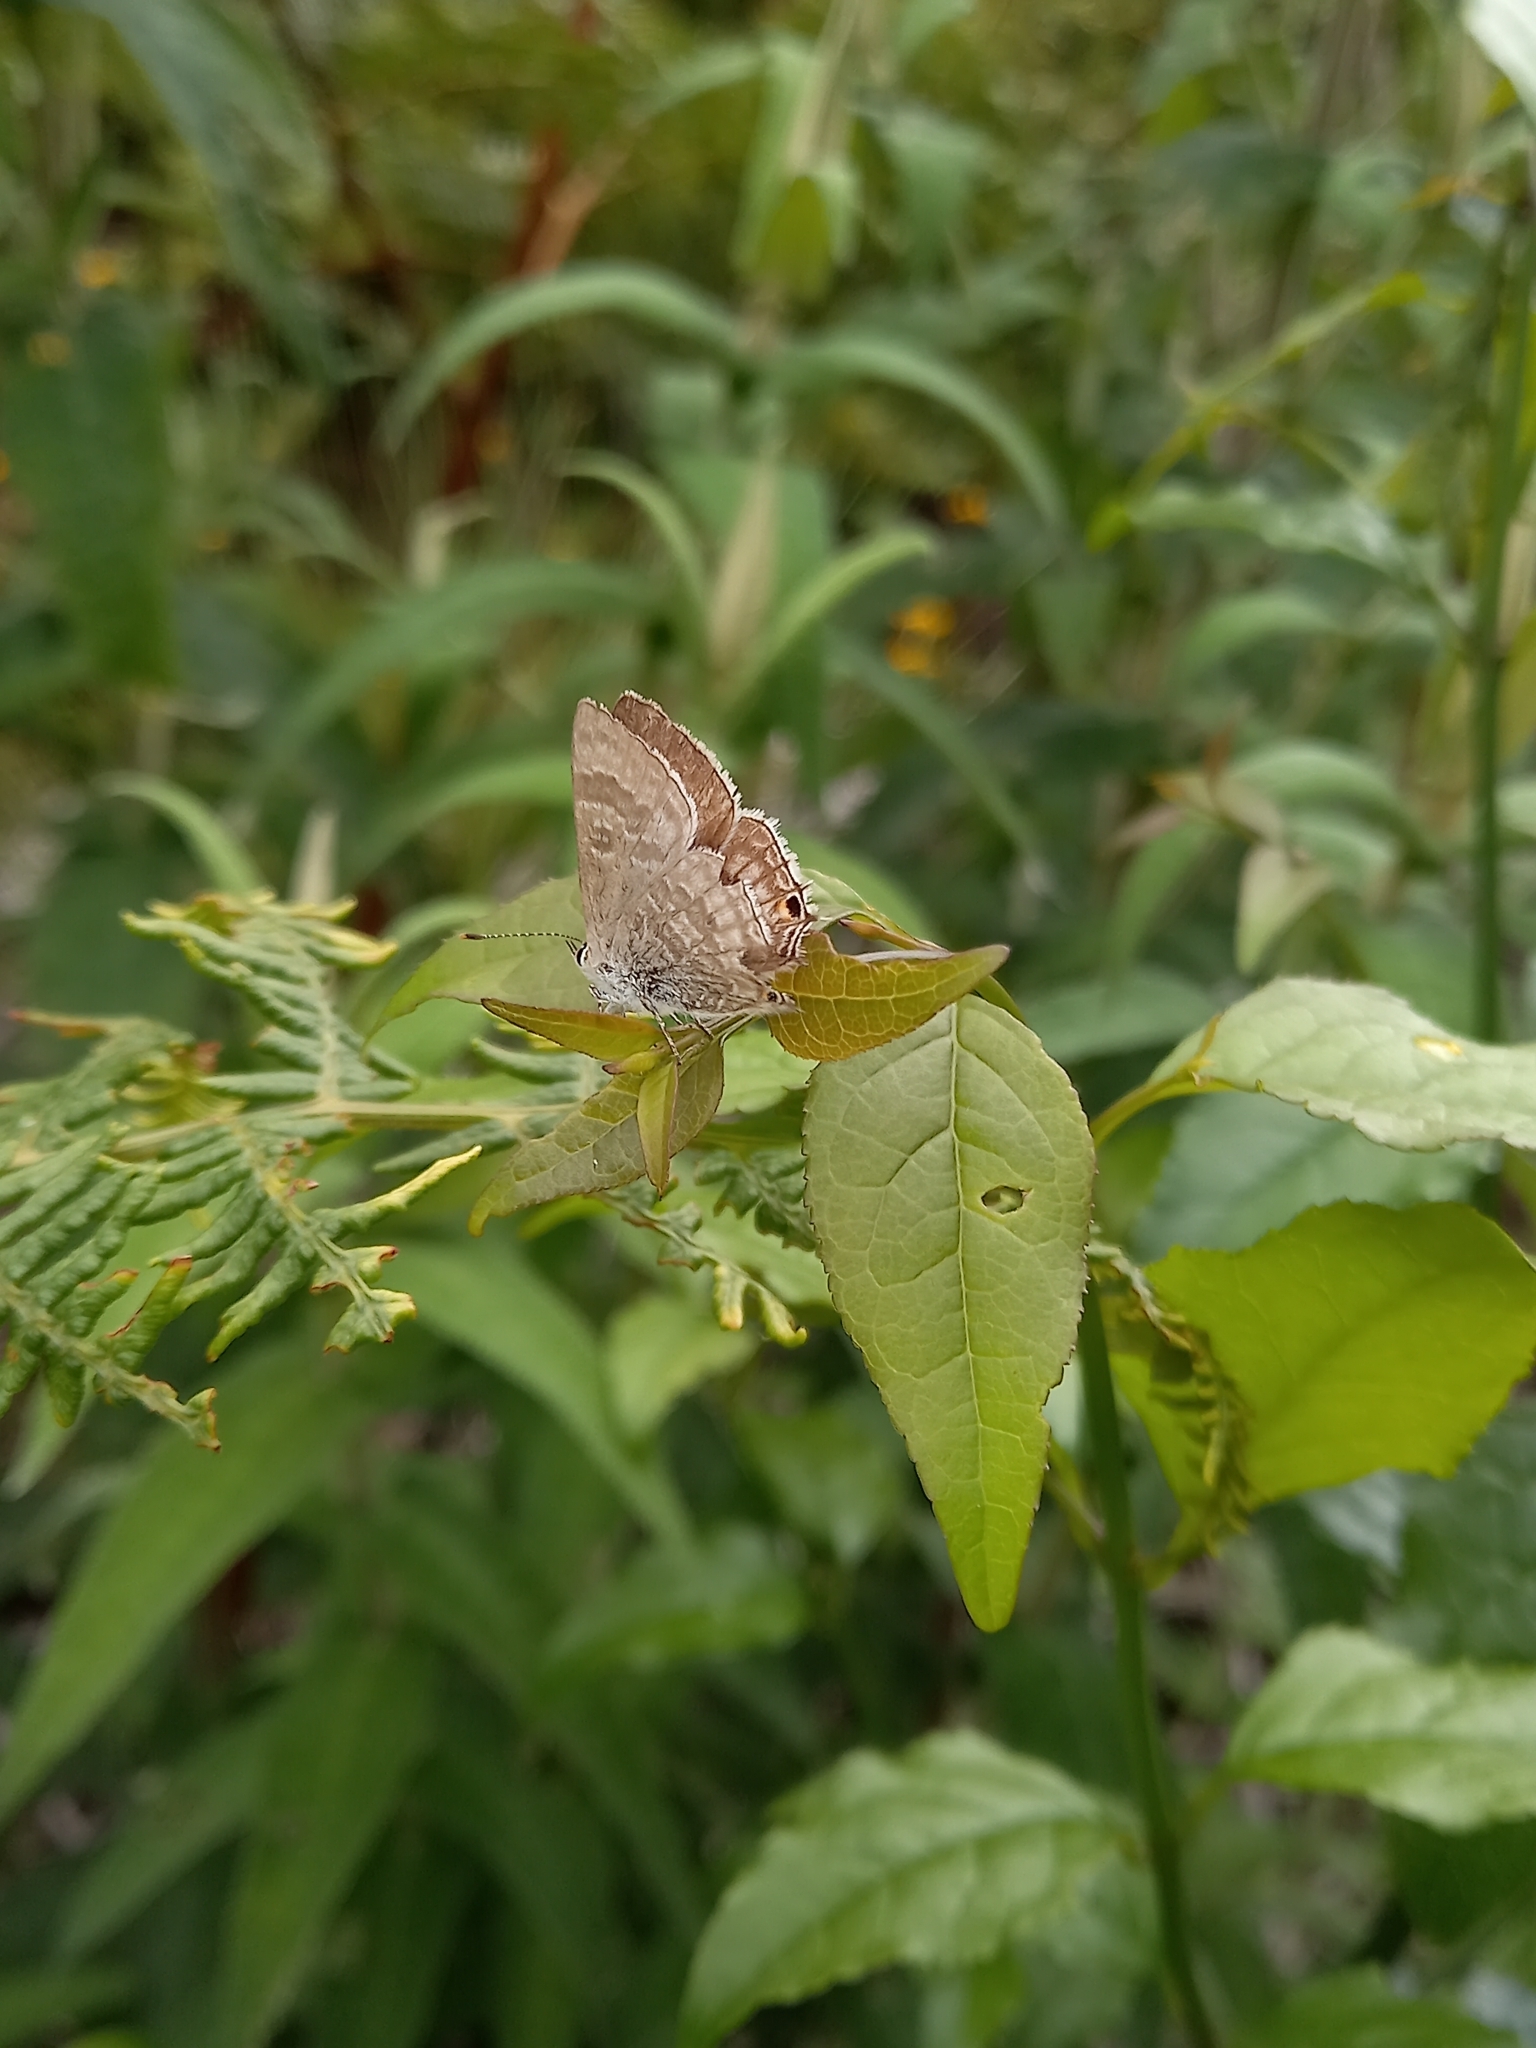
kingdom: Animalia
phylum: Arthropoda
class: Insecta
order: Lepidoptera
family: Lycaenidae
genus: Anthene
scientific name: Anthene definita
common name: Common ciliate blue
